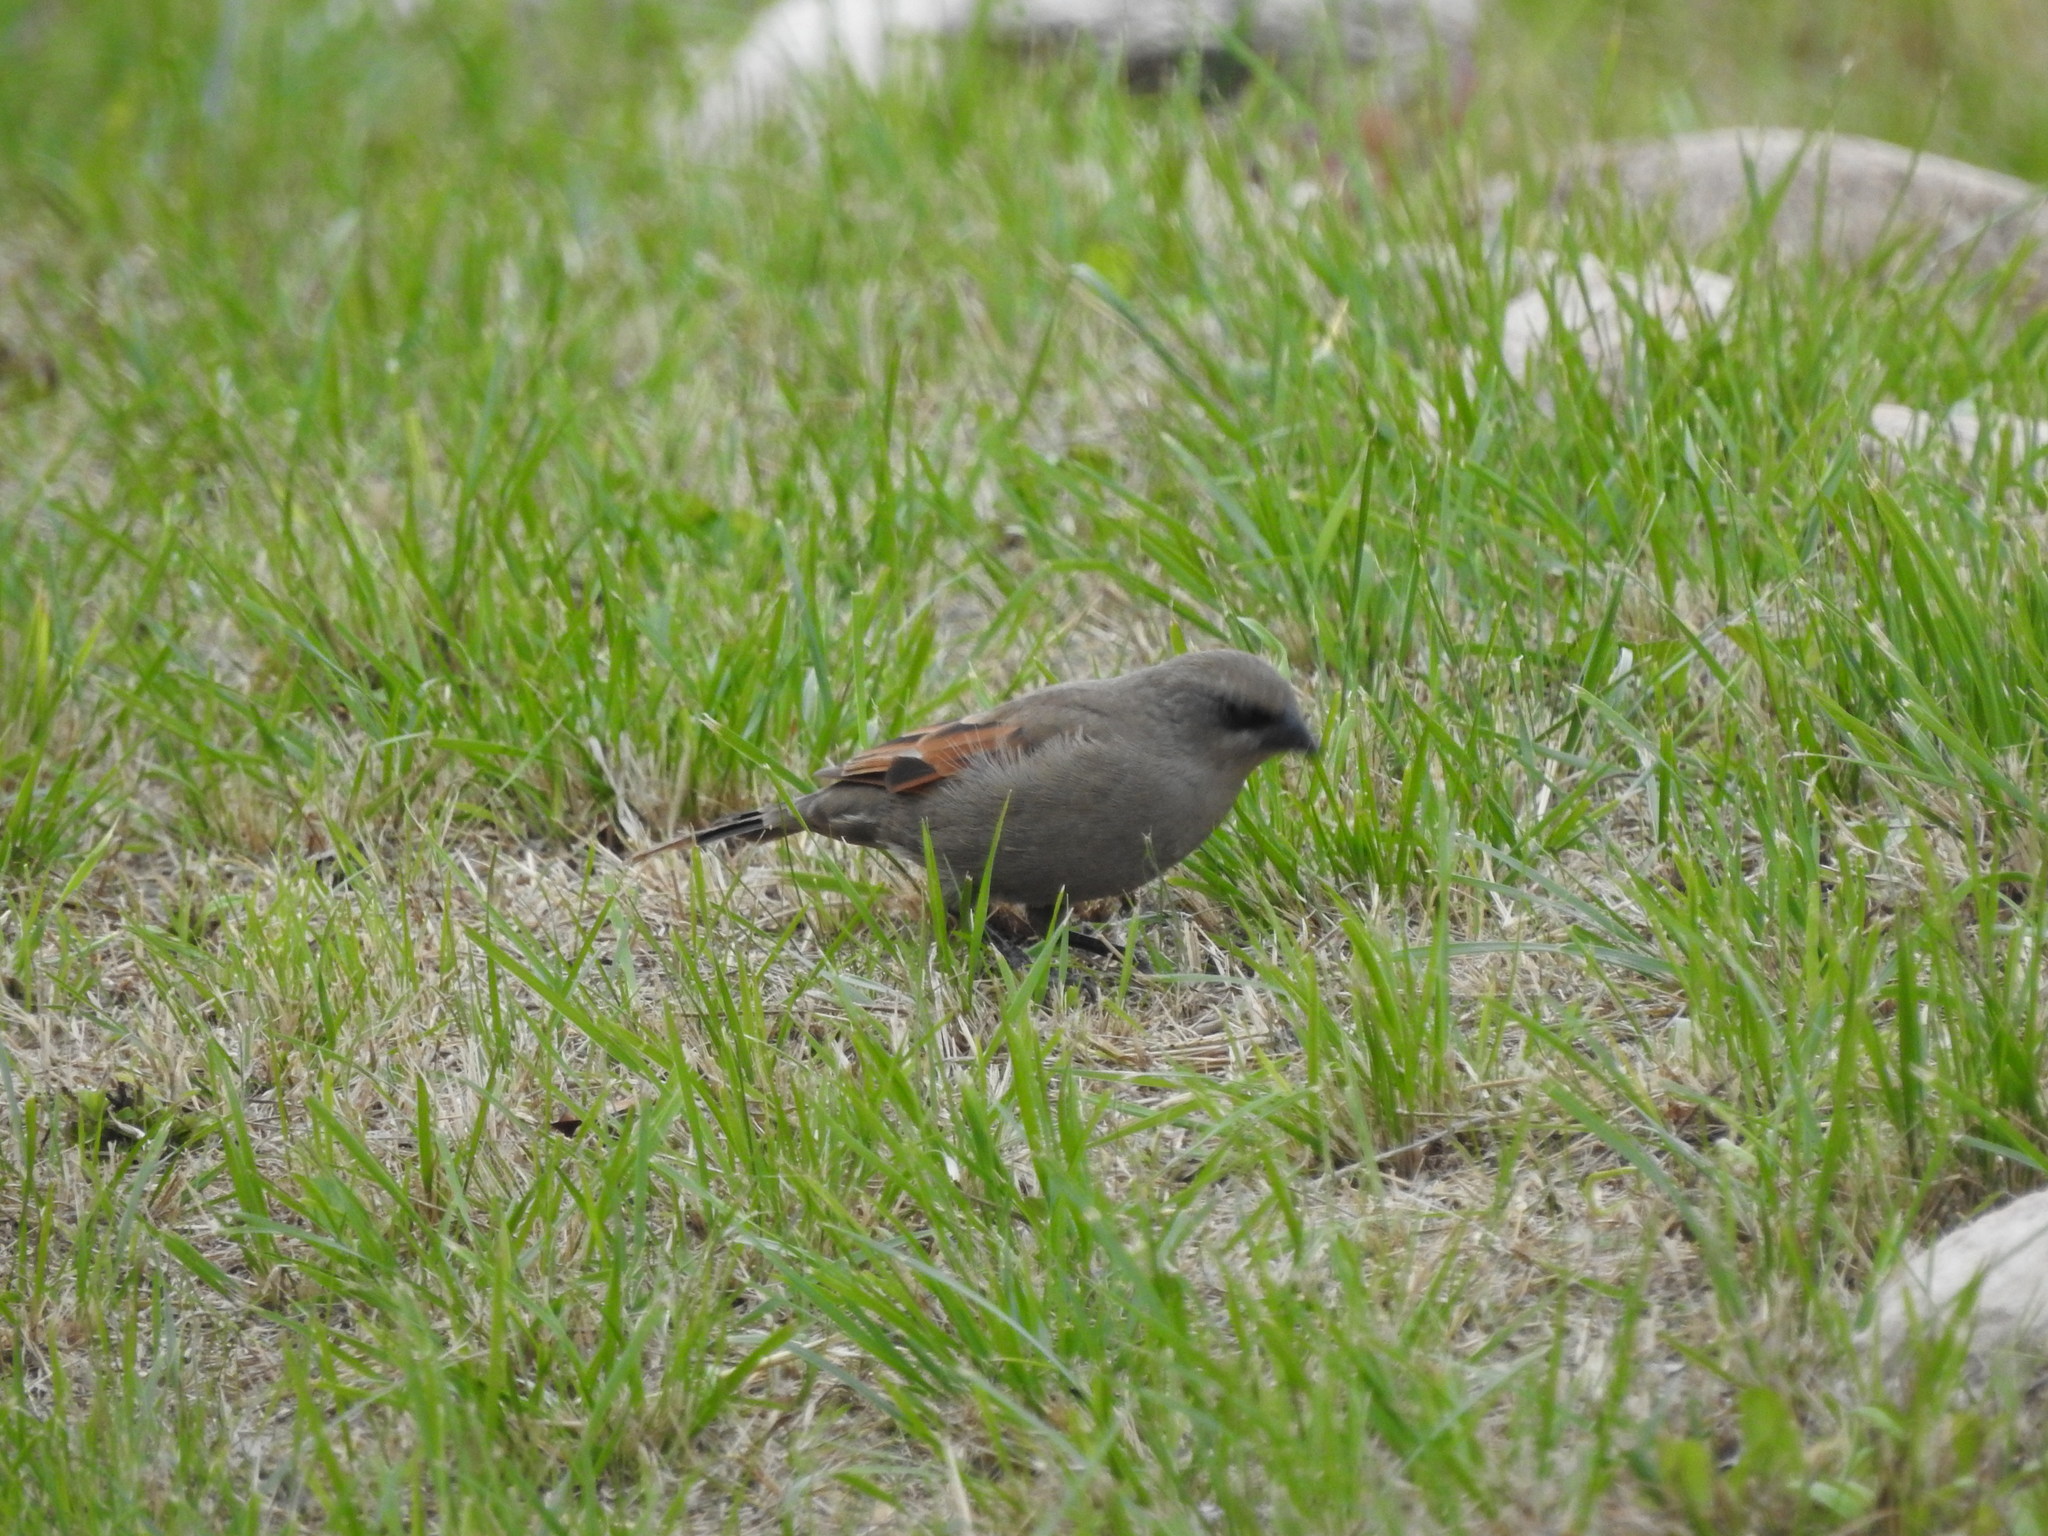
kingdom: Animalia
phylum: Chordata
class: Aves
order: Passeriformes
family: Icteridae
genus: Agelaioides
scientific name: Agelaioides badius
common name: Baywing
